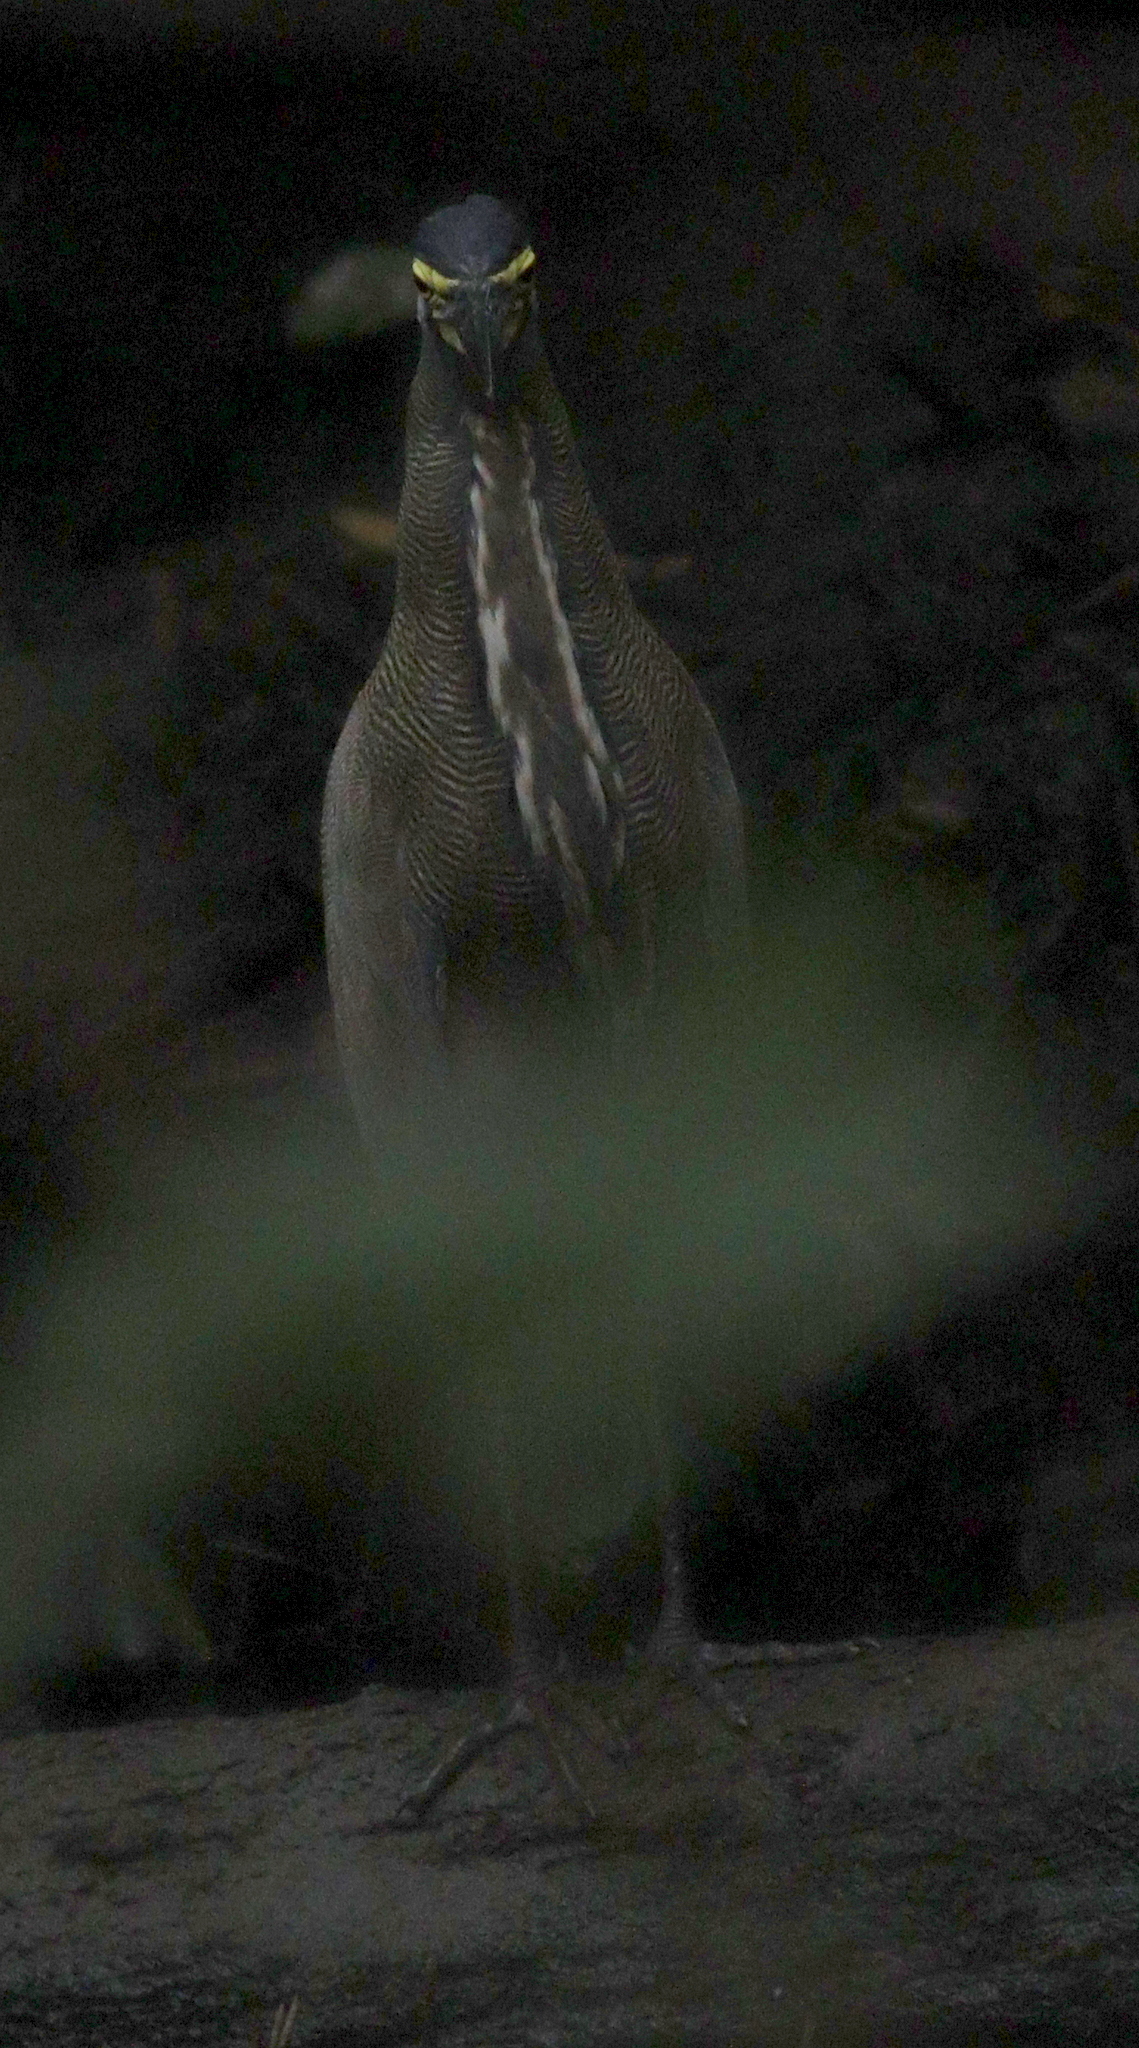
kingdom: Animalia
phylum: Chordata
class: Aves
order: Pelecaniformes
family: Ardeidae
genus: Tigrisoma
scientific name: Tigrisoma mexicanum
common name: Bare-throated tiger-heron
